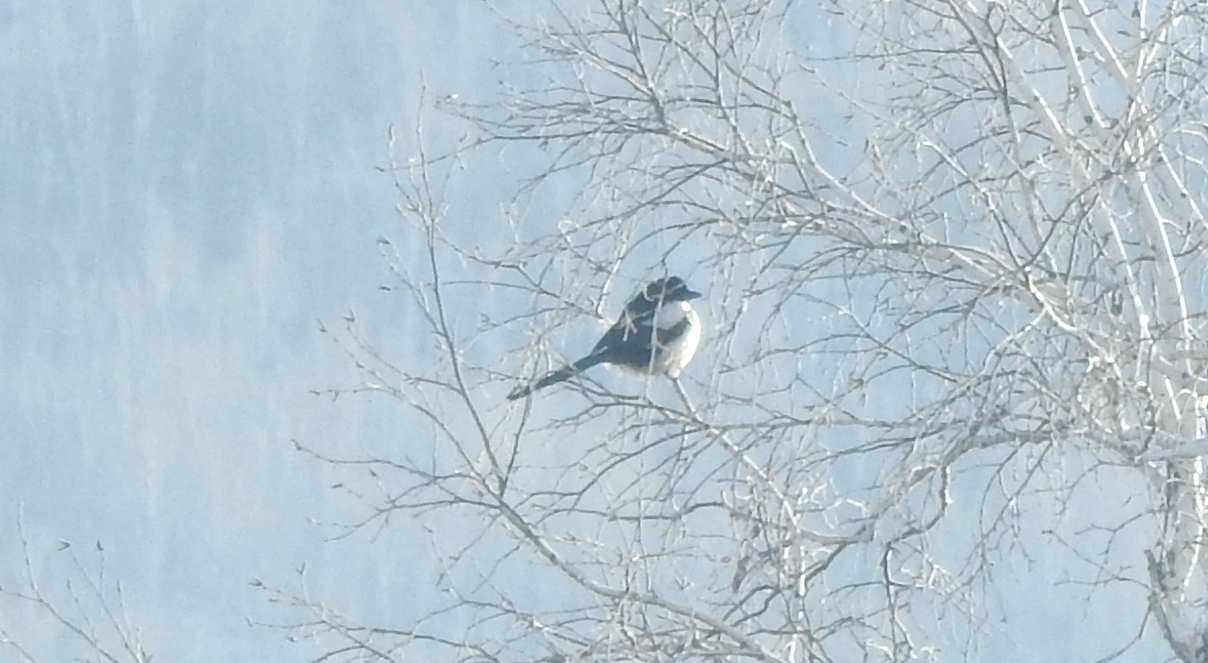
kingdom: Animalia
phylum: Chordata
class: Aves
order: Passeriformes
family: Corvidae
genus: Pica
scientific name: Pica pica
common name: Eurasian magpie
